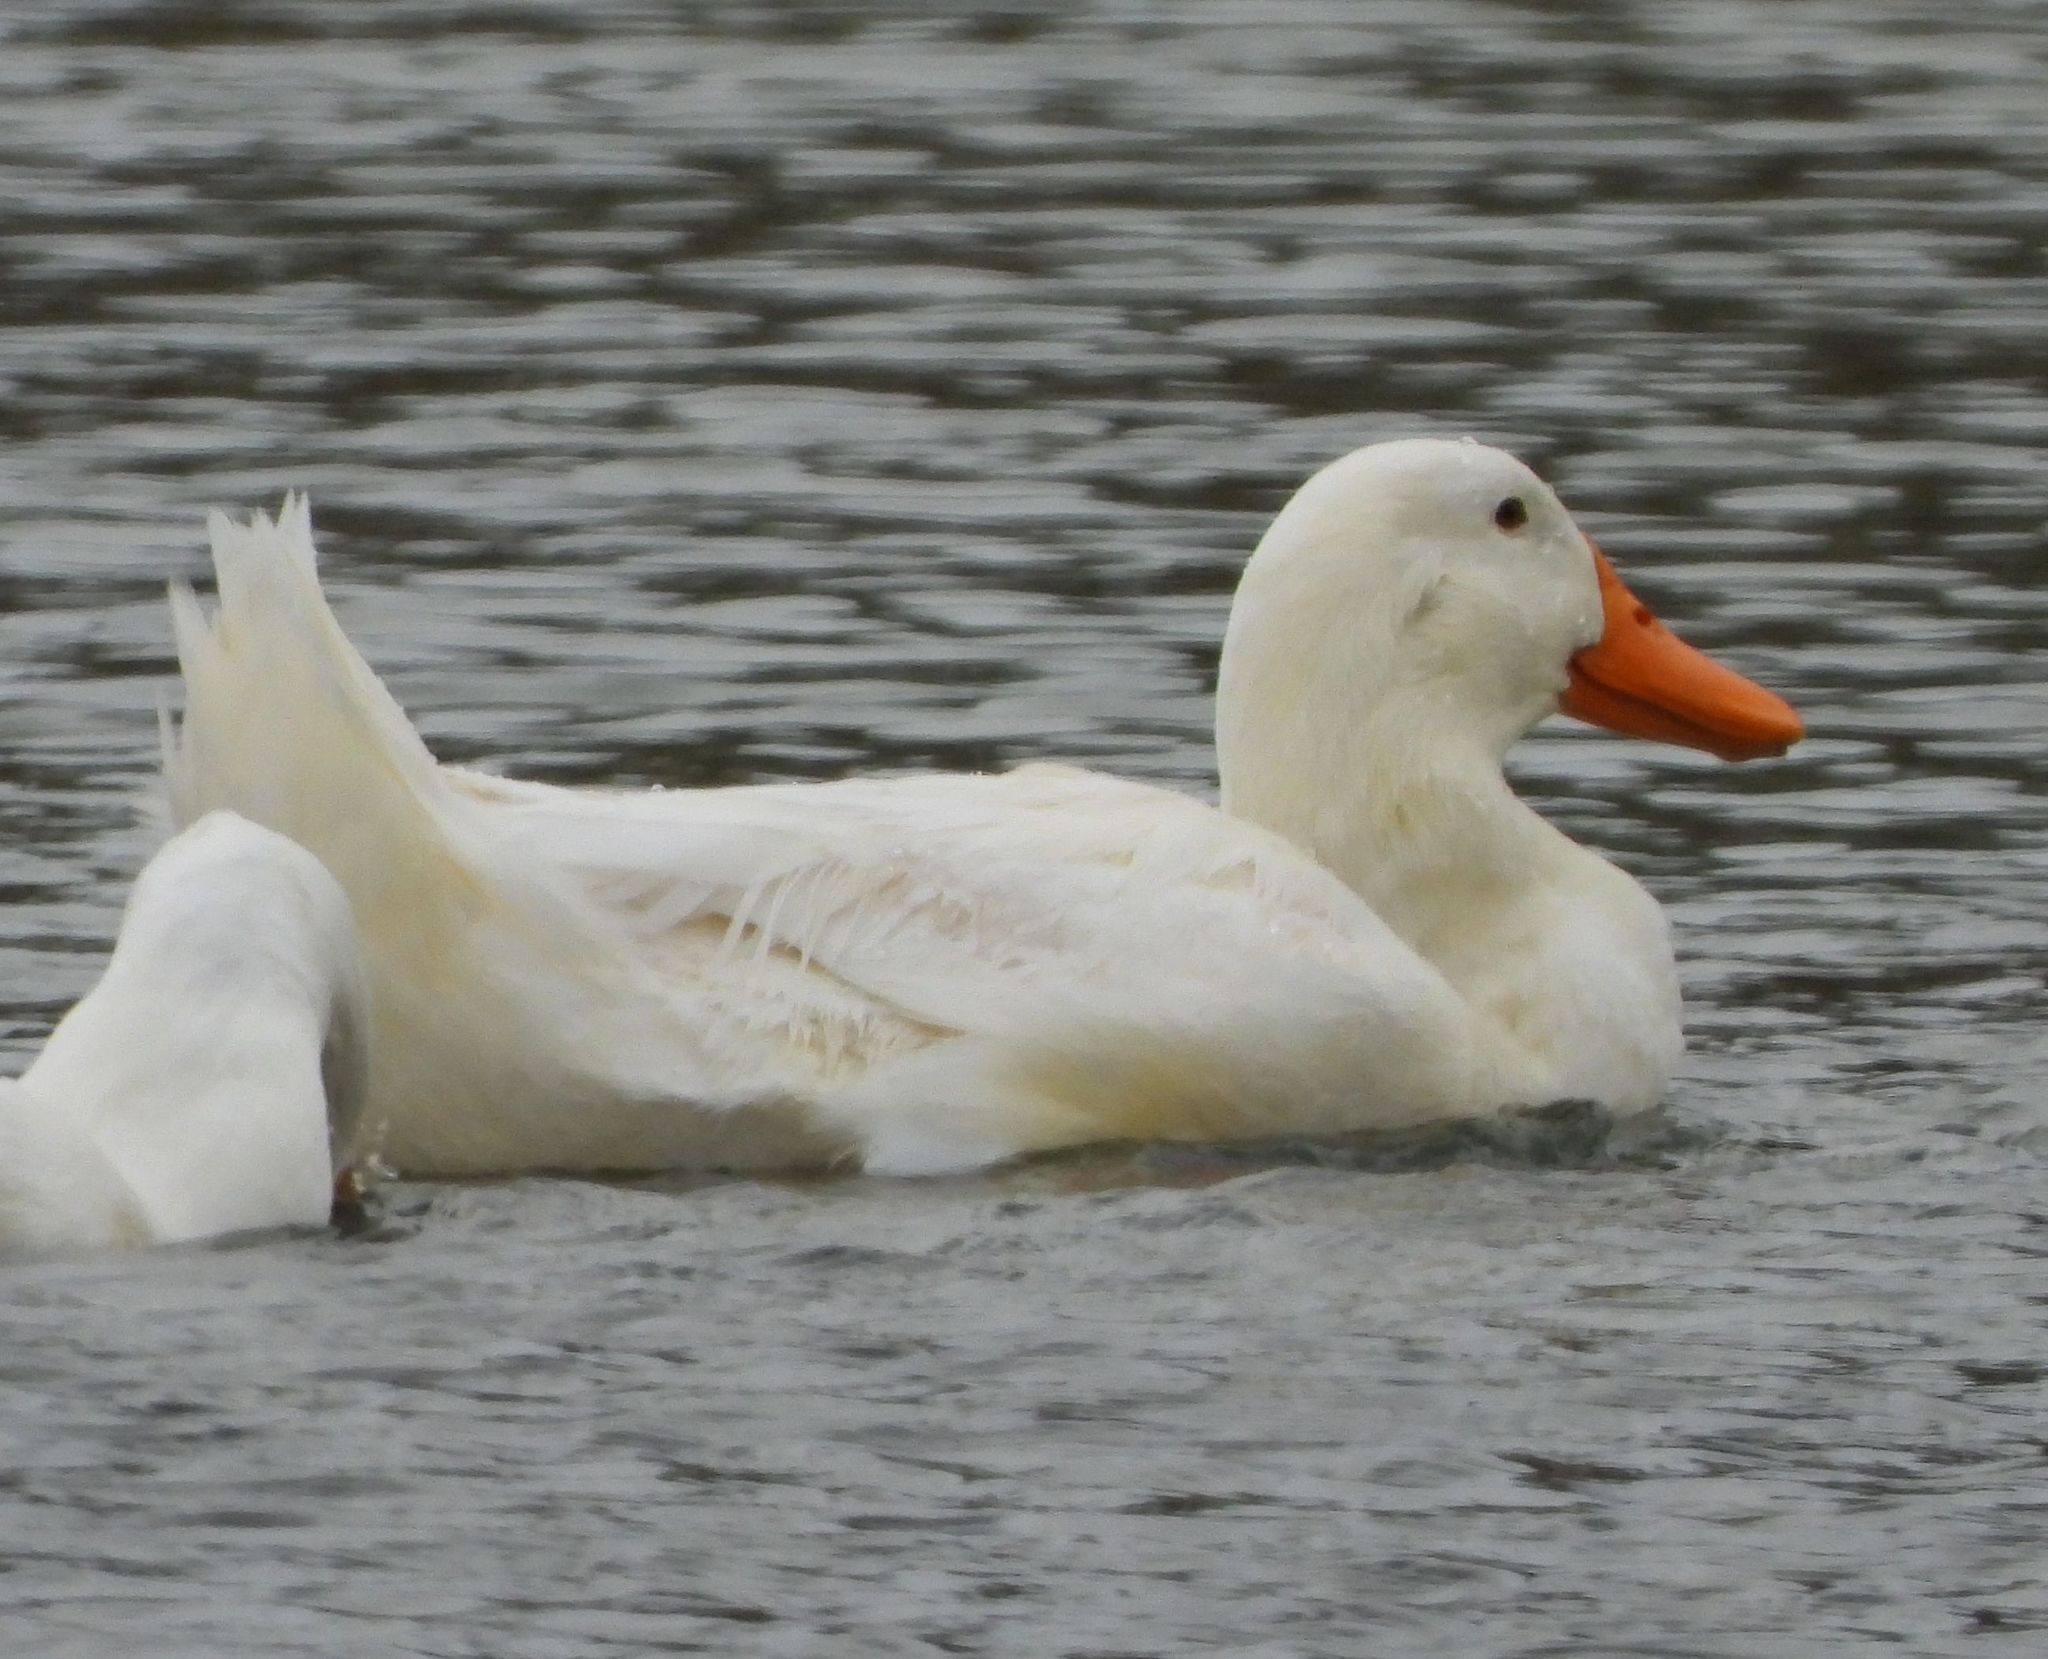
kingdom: Animalia
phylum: Chordata
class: Aves
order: Anseriformes
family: Anatidae
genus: Anas
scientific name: Anas platyrhynchos
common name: Mallard
